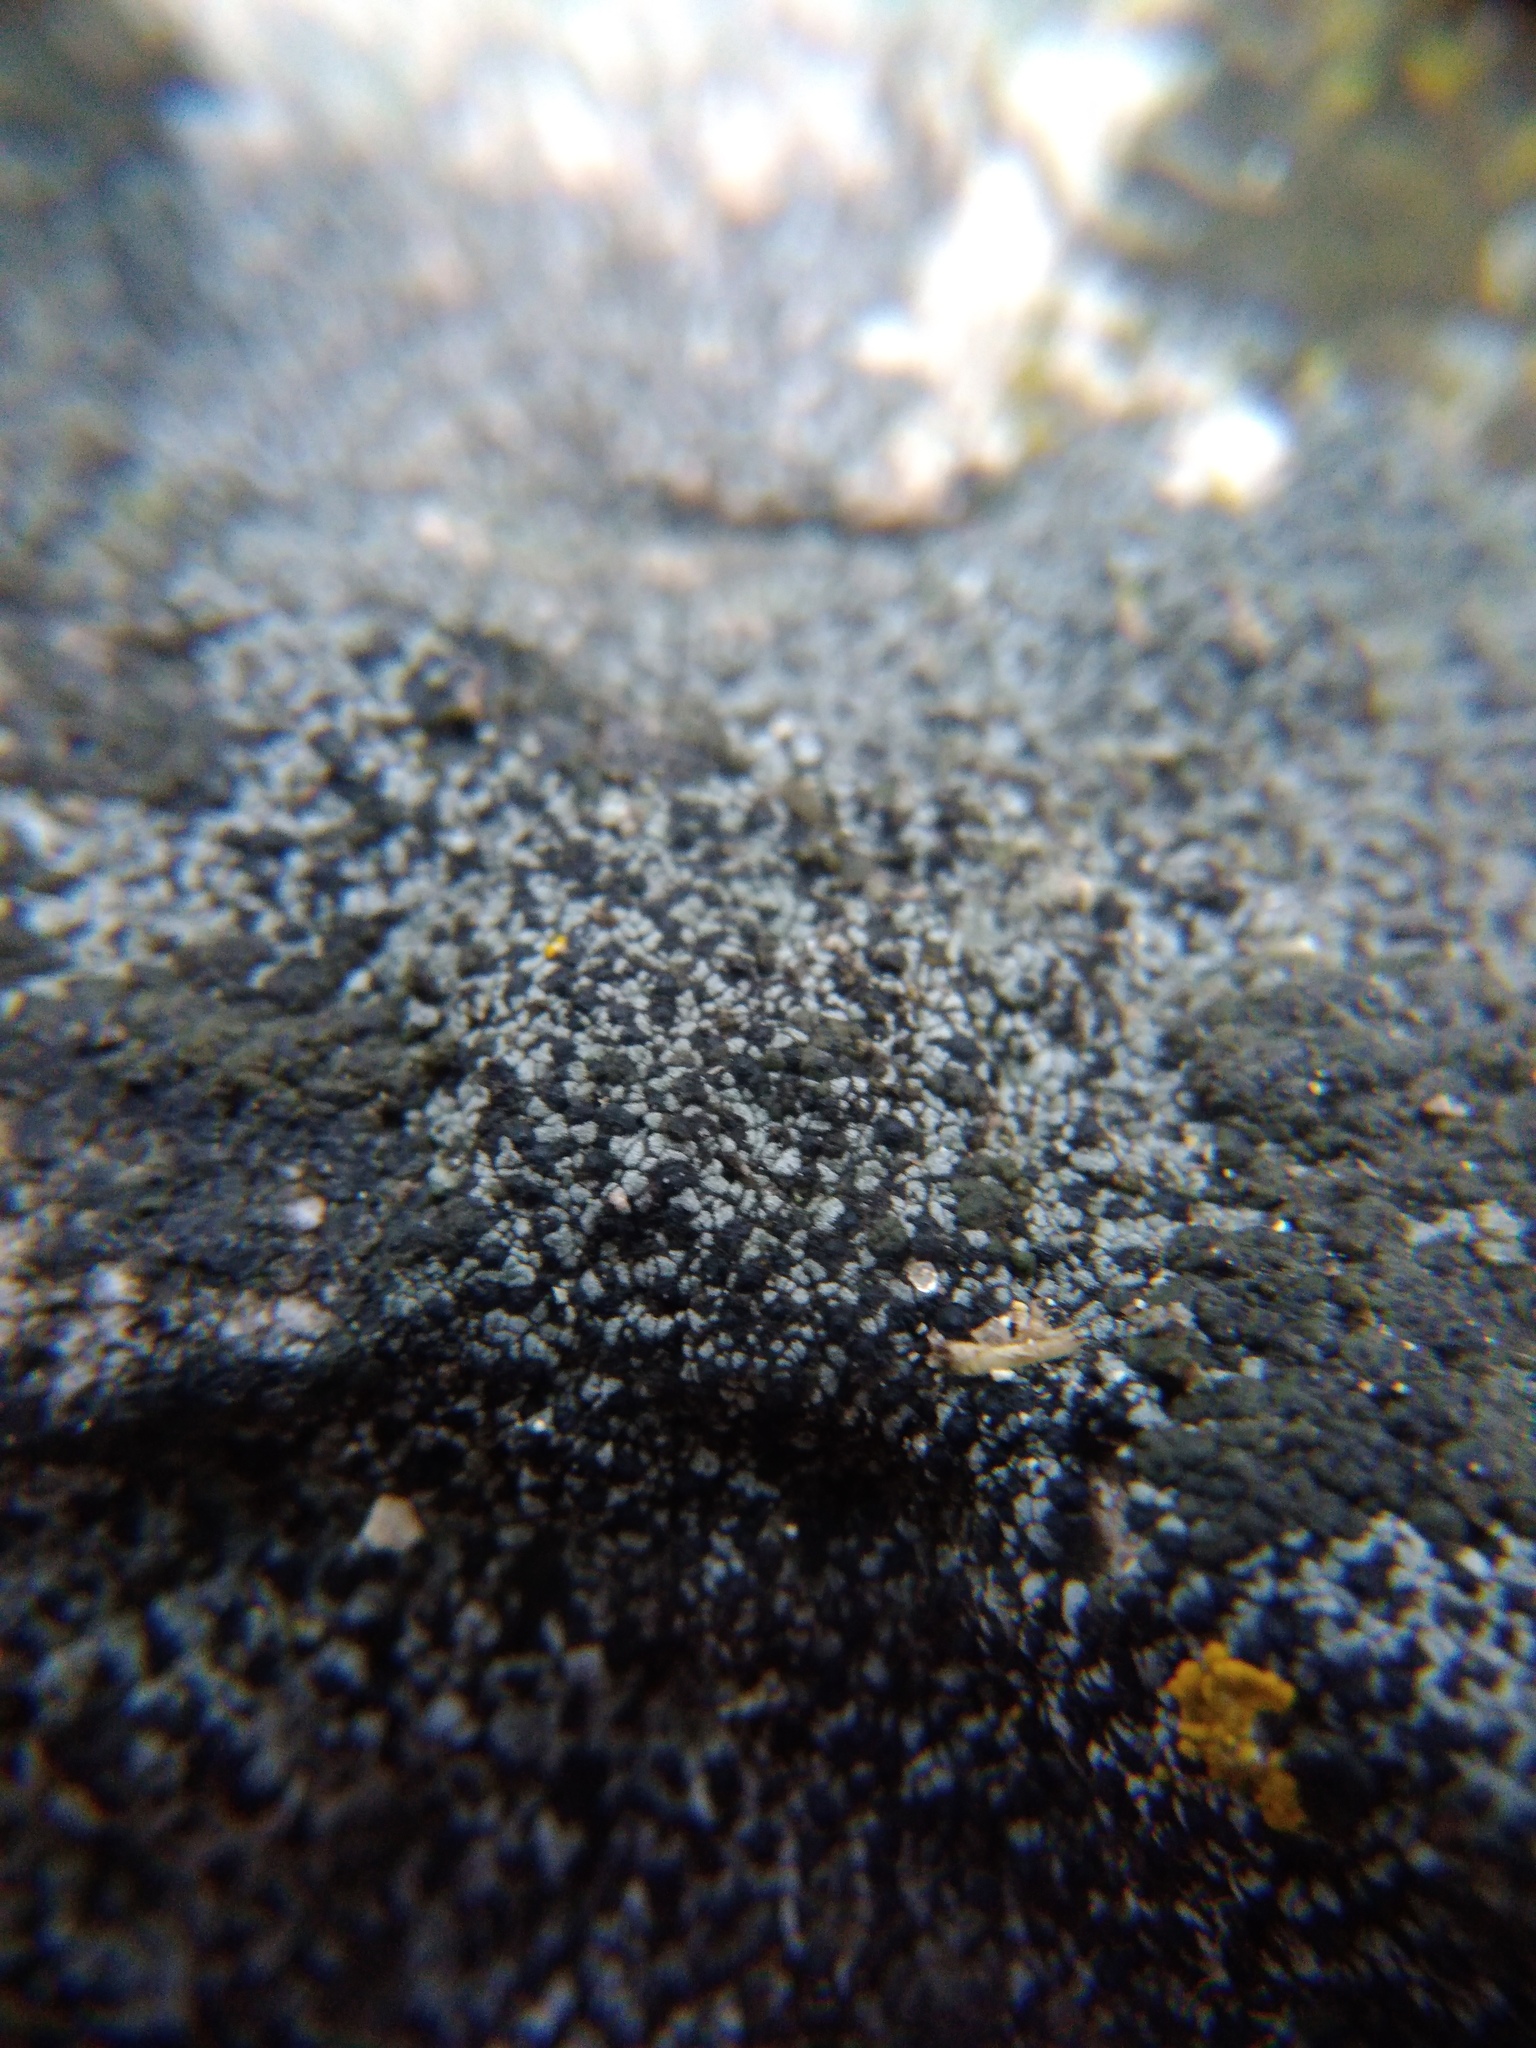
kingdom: Fungi
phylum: Ascomycota
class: Eurotiomycetes
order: Verrucariales
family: Verrucariaceae
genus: Placopyrenium
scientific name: Placopyrenium
